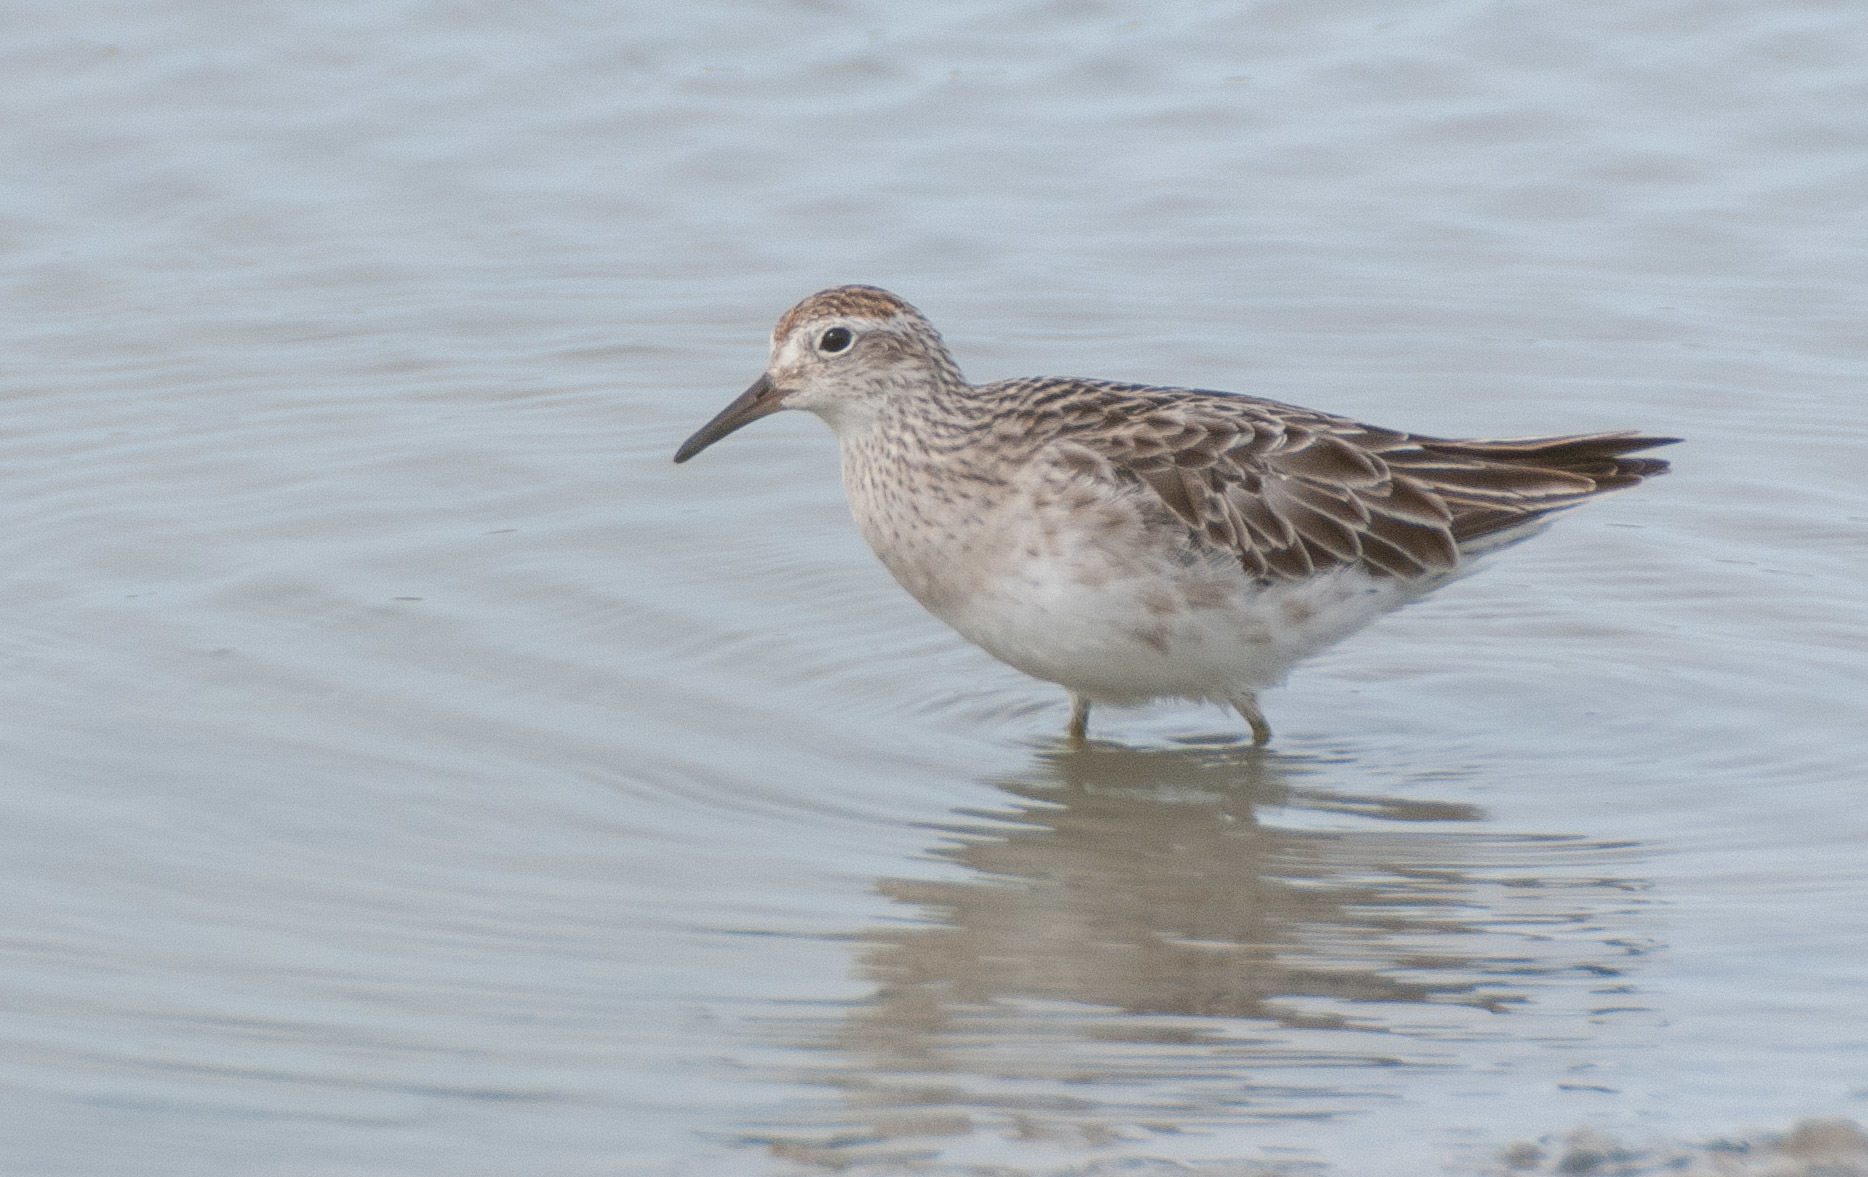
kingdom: Animalia
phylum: Chordata
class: Aves
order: Charadriiformes
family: Scolopacidae
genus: Calidris
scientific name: Calidris acuminata
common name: Sharp-tailed sandpiper
